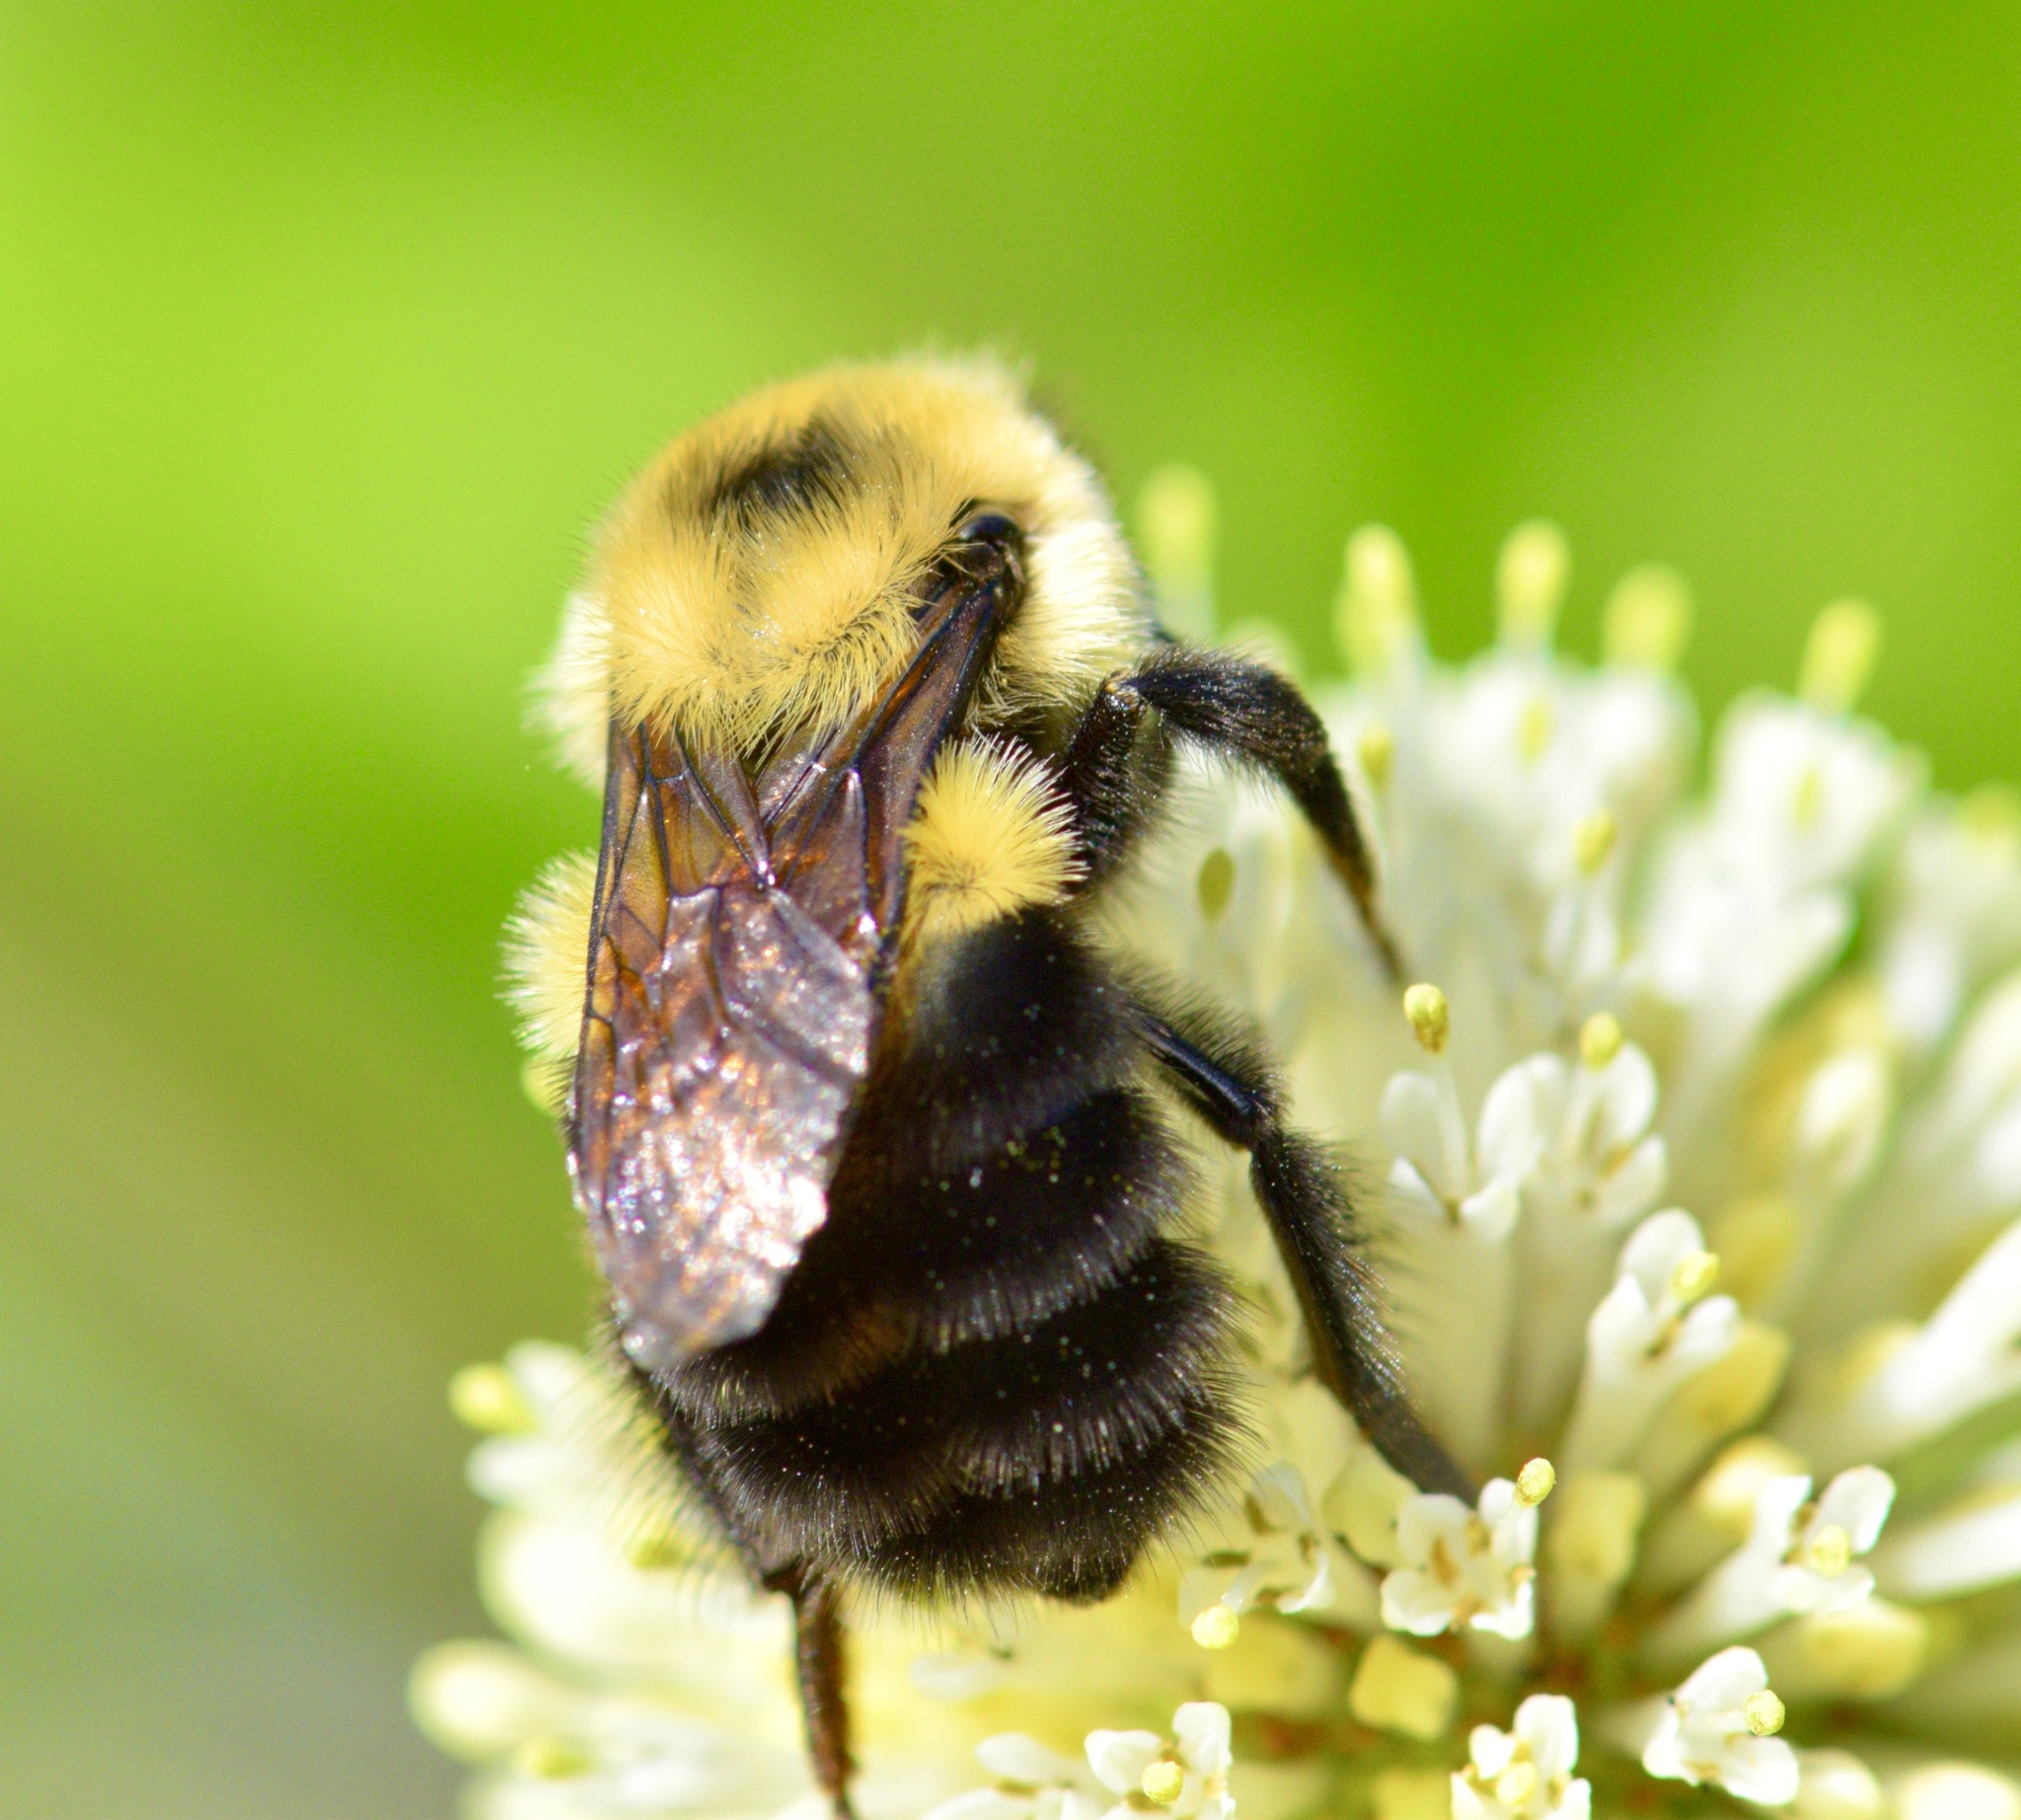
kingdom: Animalia
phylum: Arthropoda
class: Insecta
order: Hymenoptera
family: Apidae
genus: Bombus
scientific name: Bombus bimaculatus
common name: Two-spotted bumble bee
